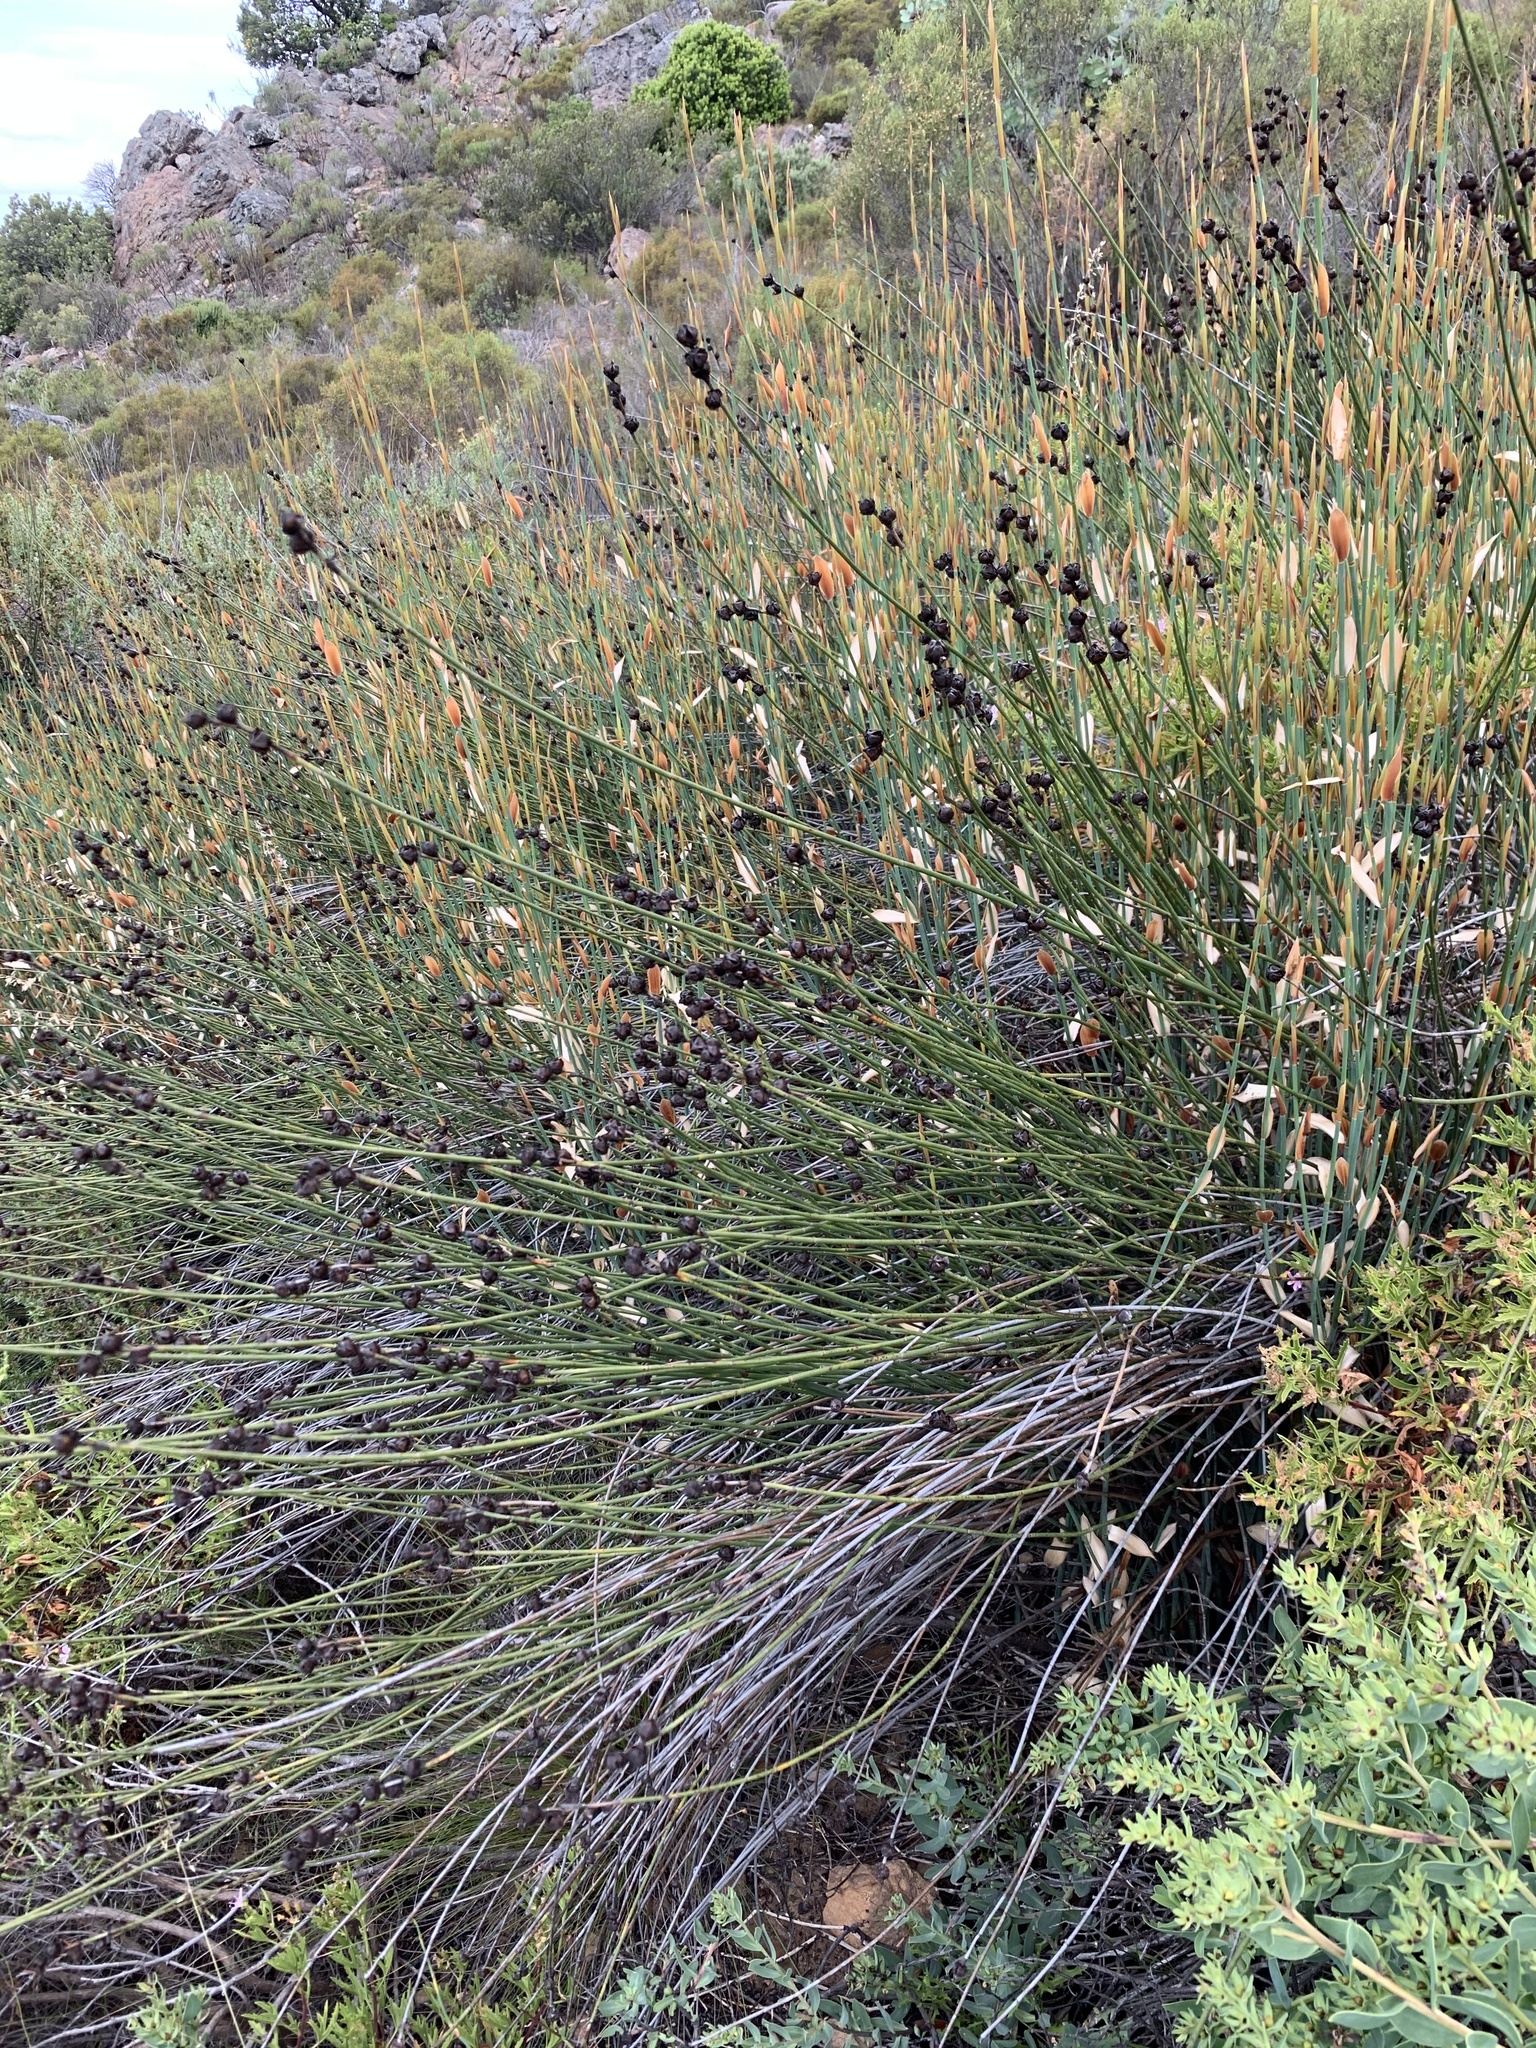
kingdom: Plantae
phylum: Tracheophyta
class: Liliopsida
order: Poales
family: Restionaceae
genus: Elegia
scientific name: Elegia macrocarpa
